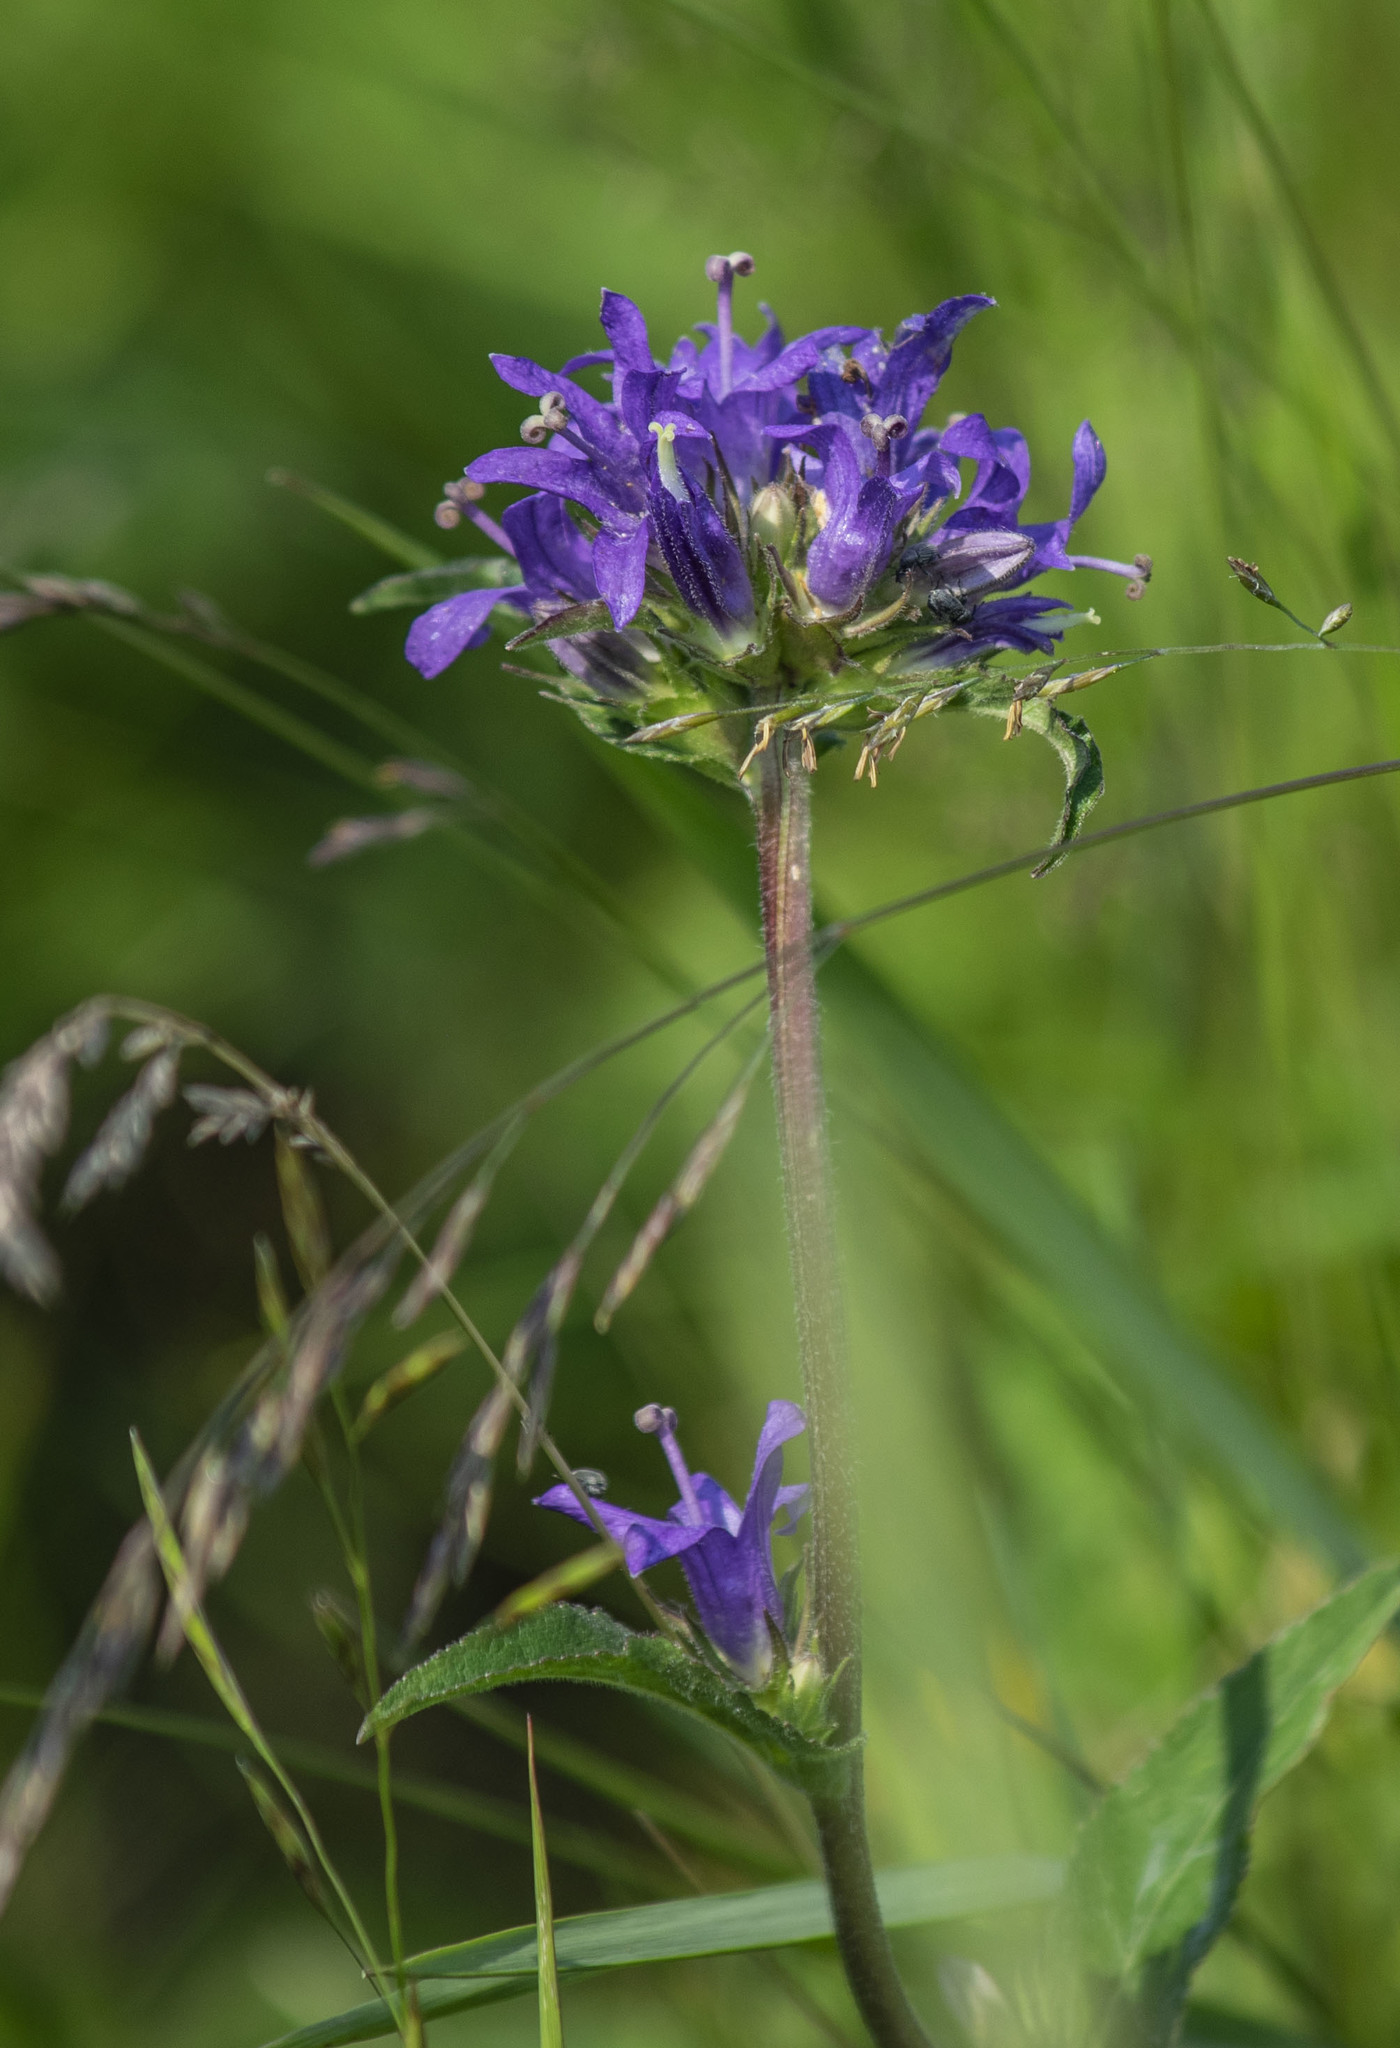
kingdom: Plantae
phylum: Tracheophyta
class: Magnoliopsida
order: Asterales
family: Campanulaceae
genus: Campanula
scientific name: Campanula glomerata
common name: Clustered bellflower
